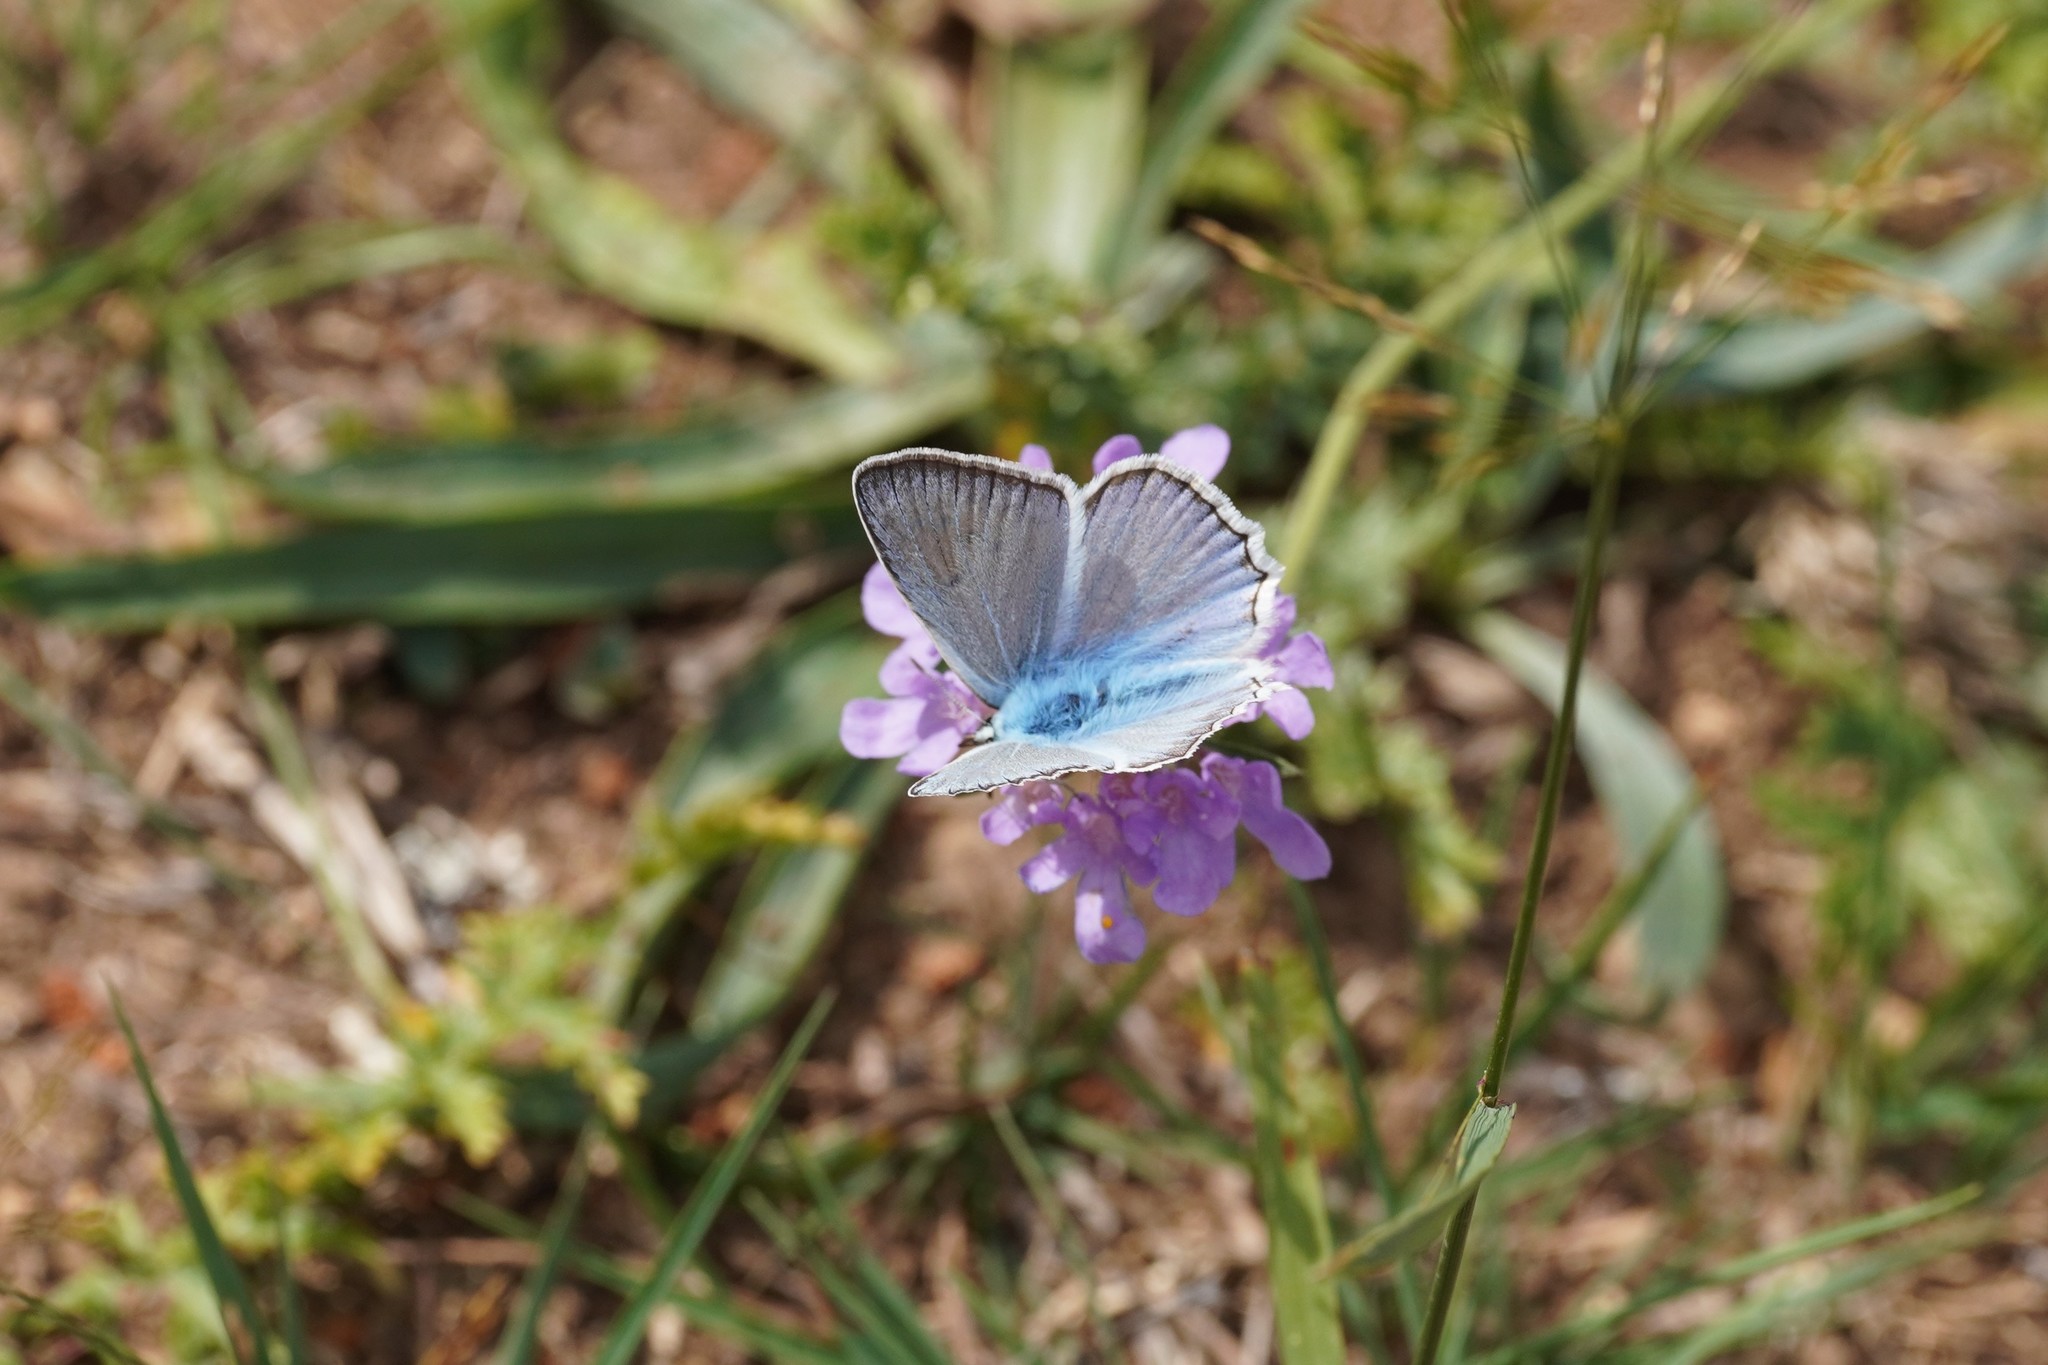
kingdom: Animalia
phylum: Arthropoda
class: Insecta
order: Lepidoptera
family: Lycaenidae
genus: Polyommatus
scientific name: Polyommatus daphnis
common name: Meleager's blue
